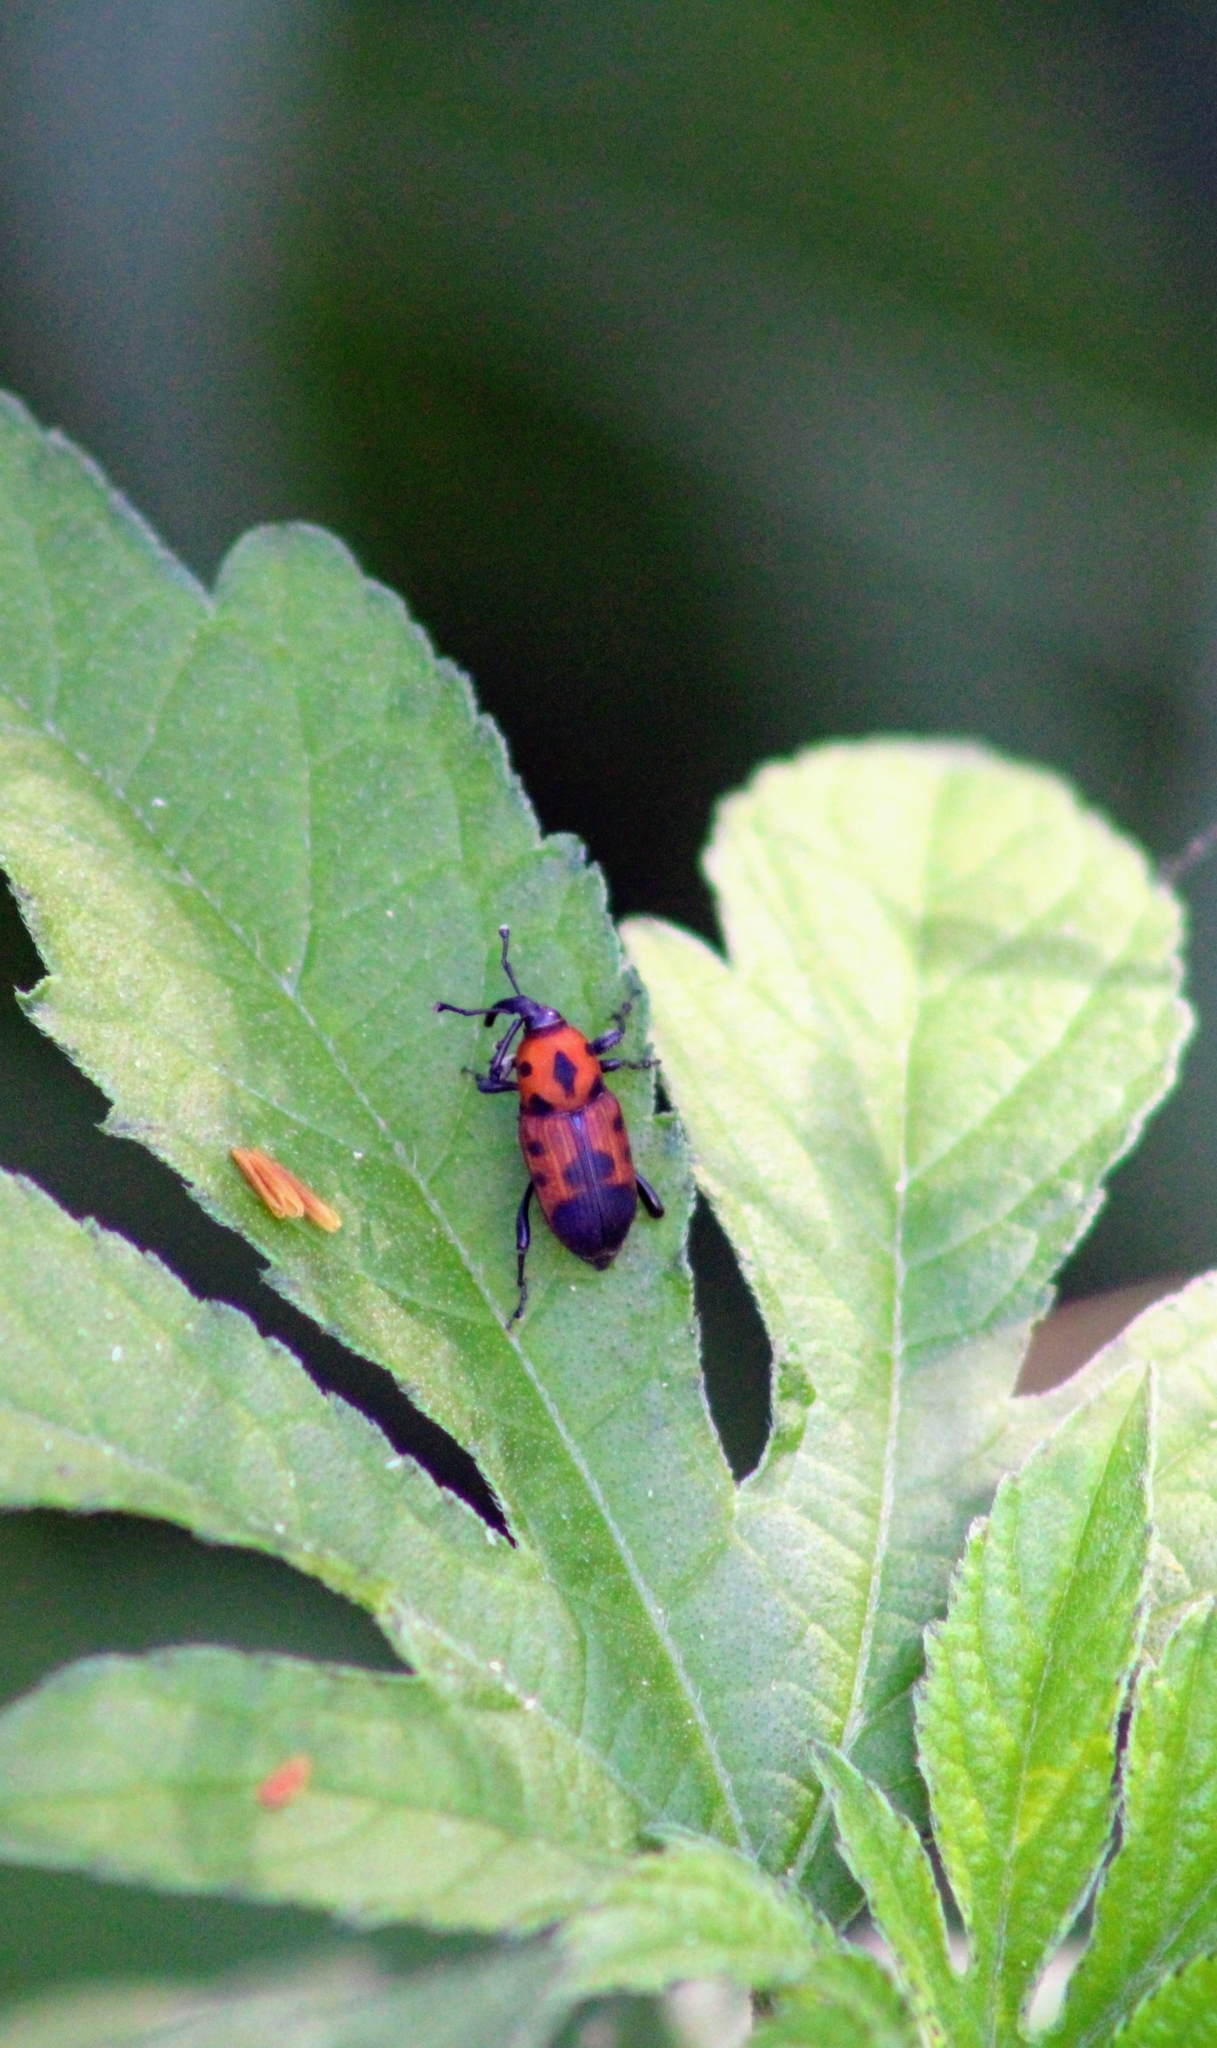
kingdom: Animalia
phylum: Arthropoda
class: Insecta
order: Coleoptera
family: Dryophthoridae
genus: Rhodobaenus
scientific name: Rhodobaenus quinquepunctatus
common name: Cocklebur weevil
